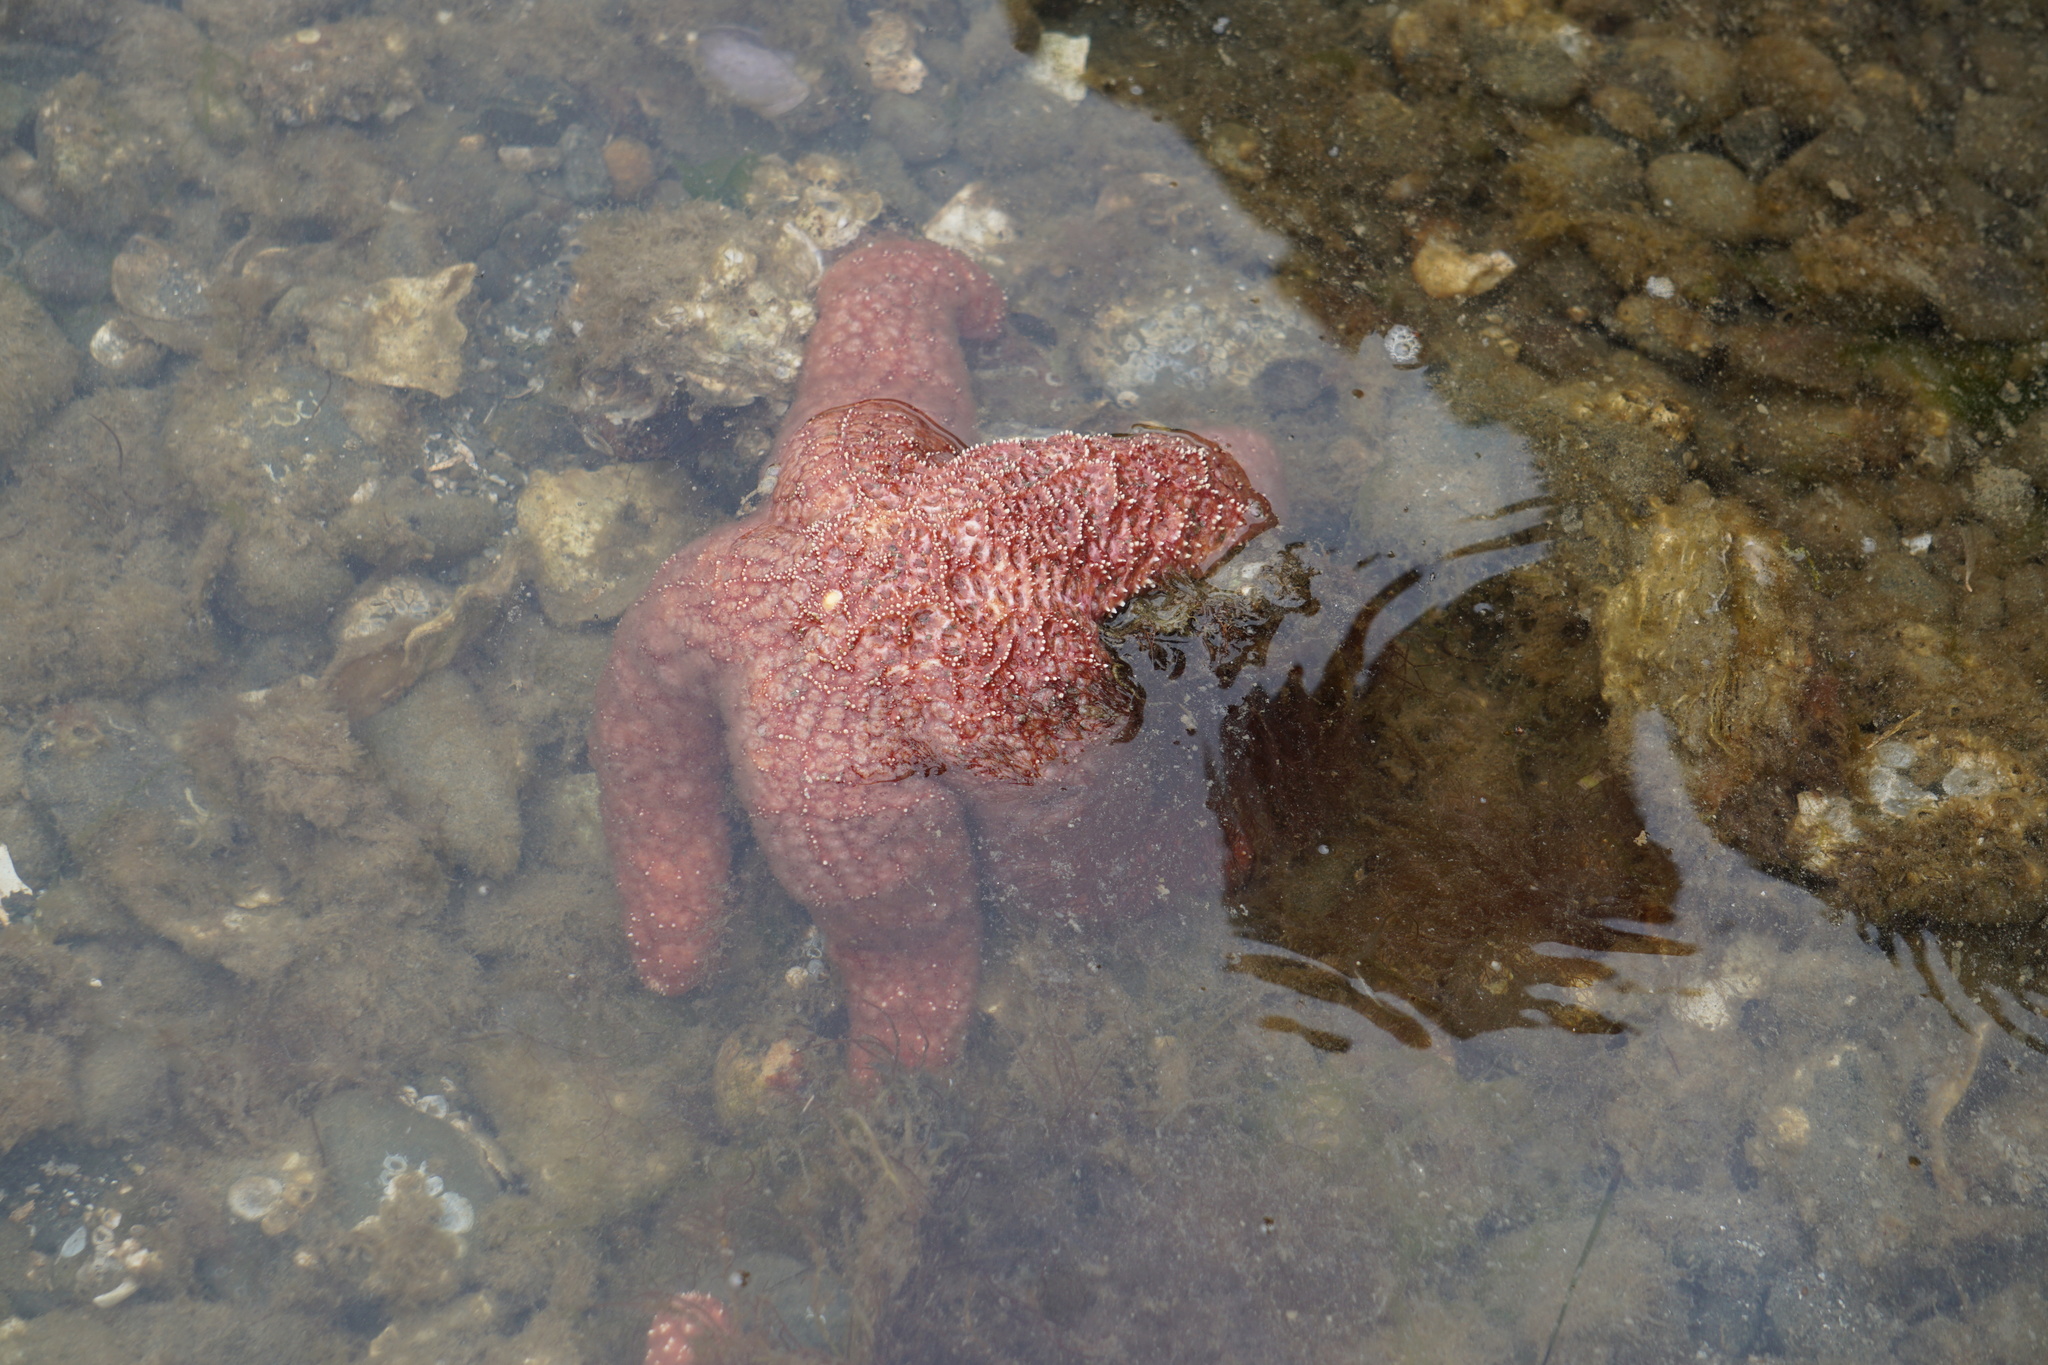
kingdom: Animalia
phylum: Echinodermata
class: Asteroidea
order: Forcipulatida
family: Asteriidae
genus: Pisaster
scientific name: Pisaster ochraceus
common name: Ochre stars
